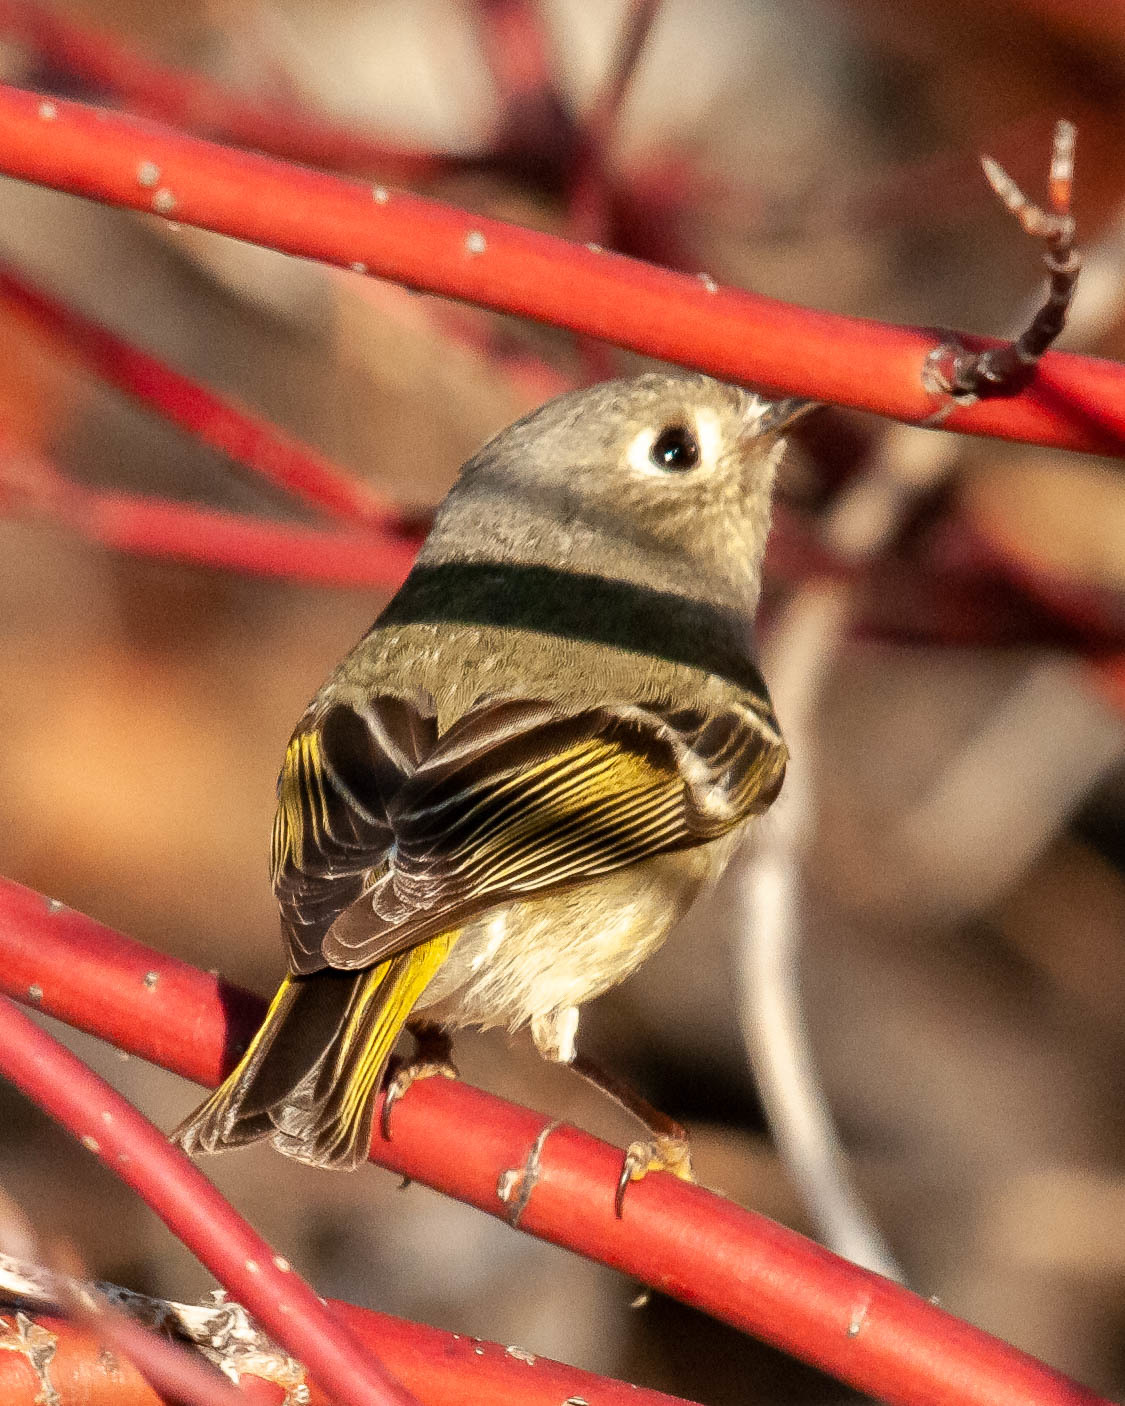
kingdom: Animalia
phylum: Chordata
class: Aves
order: Passeriformes
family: Regulidae
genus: Regulus
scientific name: Regulus calendula
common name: Ruby-crowned kinglet
